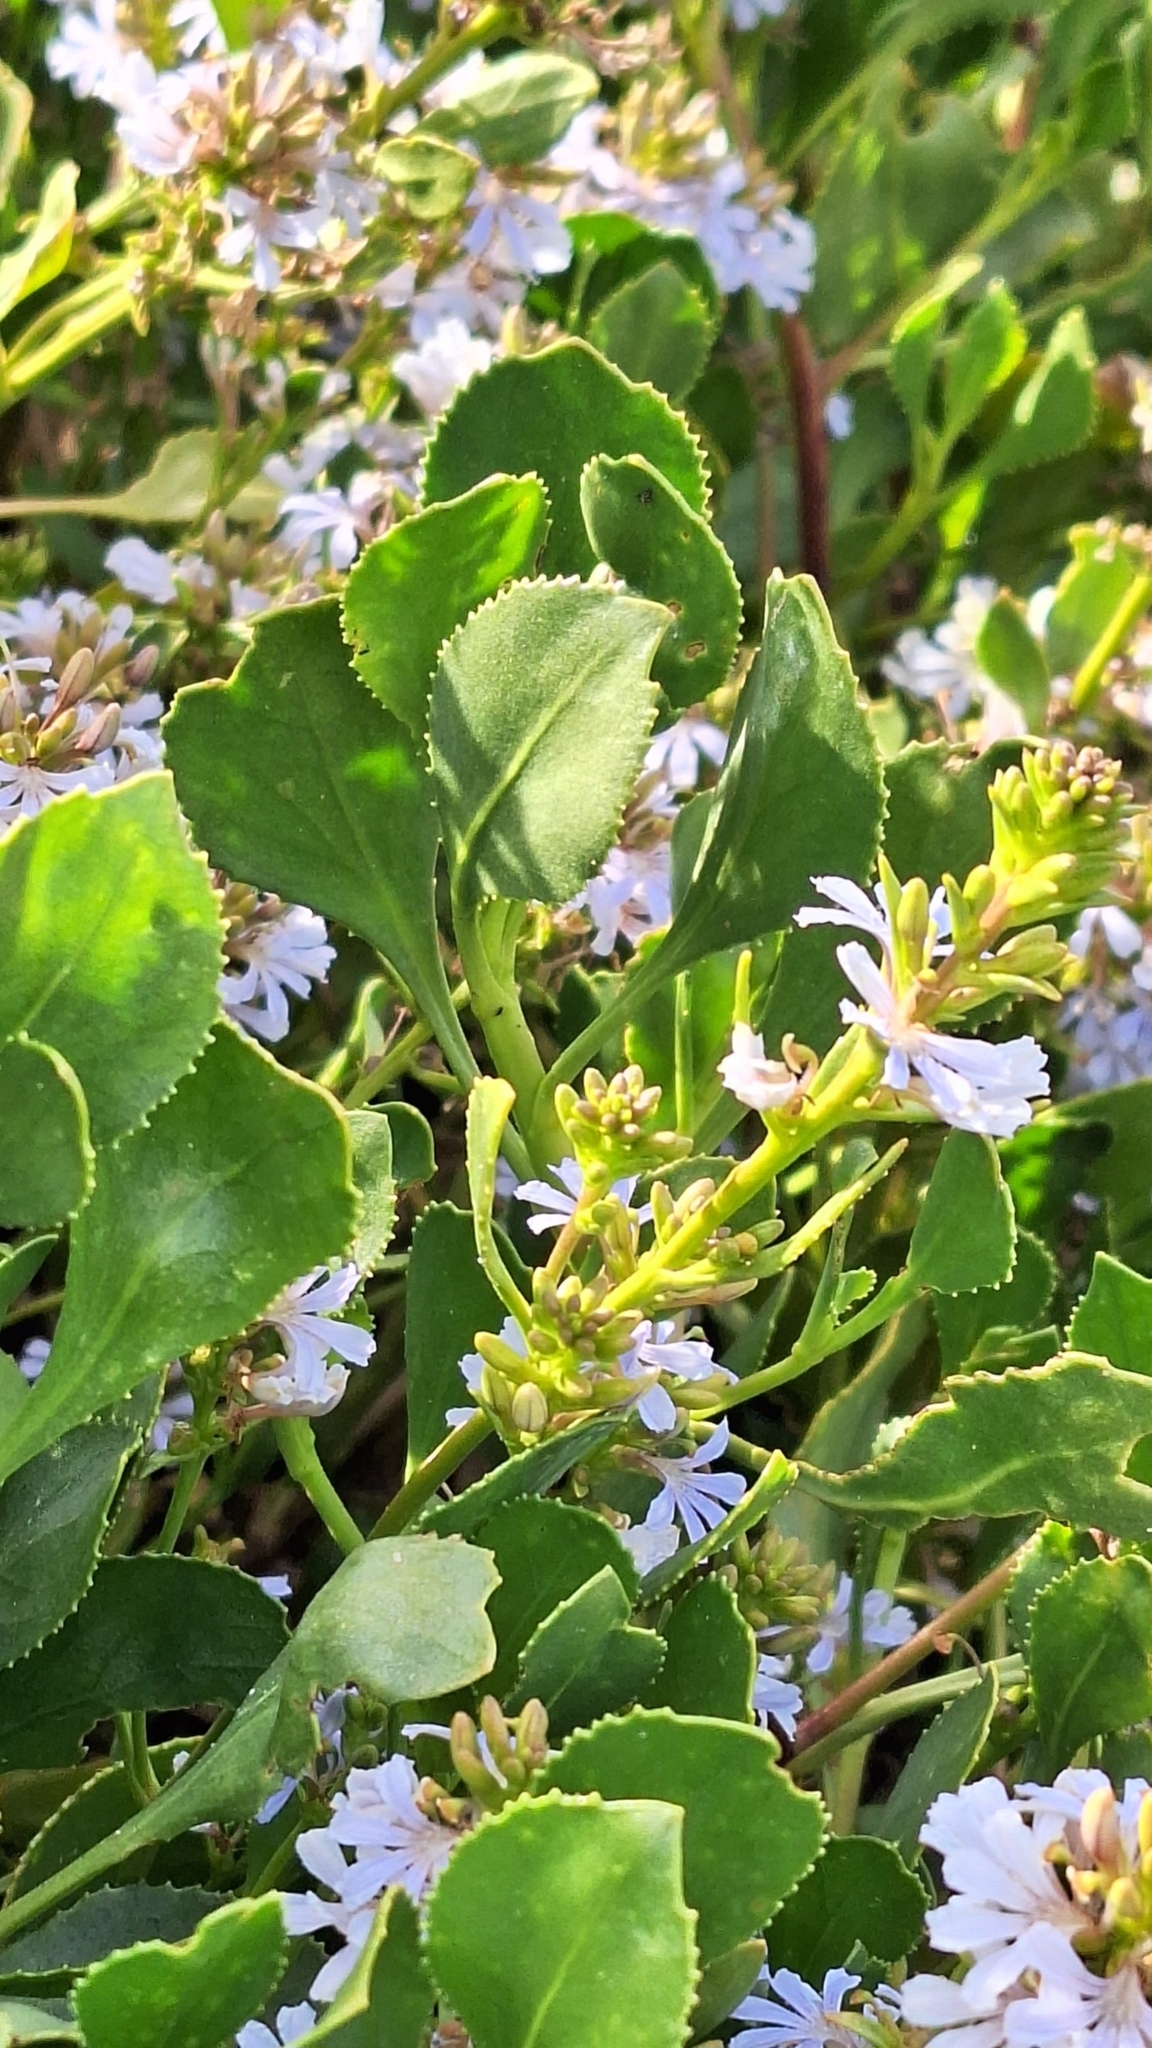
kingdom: Plantae
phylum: Tracheophyta
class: Magnoliopsida
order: Asterales
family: Goodeniaceae
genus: Scaevola
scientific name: Scaevola crassifolia
